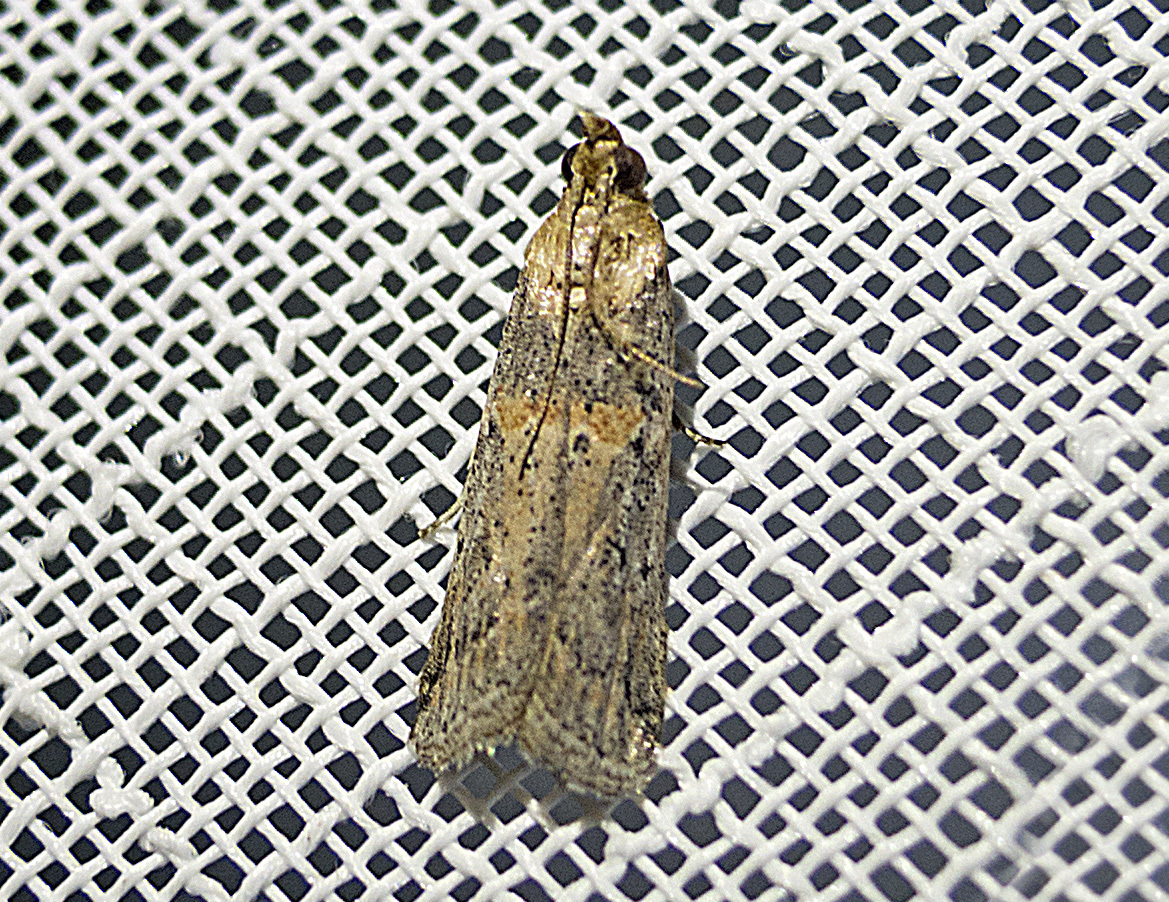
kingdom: Animalia
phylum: Arthropoda
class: Insecta
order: Lepidoptera
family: Pyralidae
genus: Psorosa
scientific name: Psorosa
